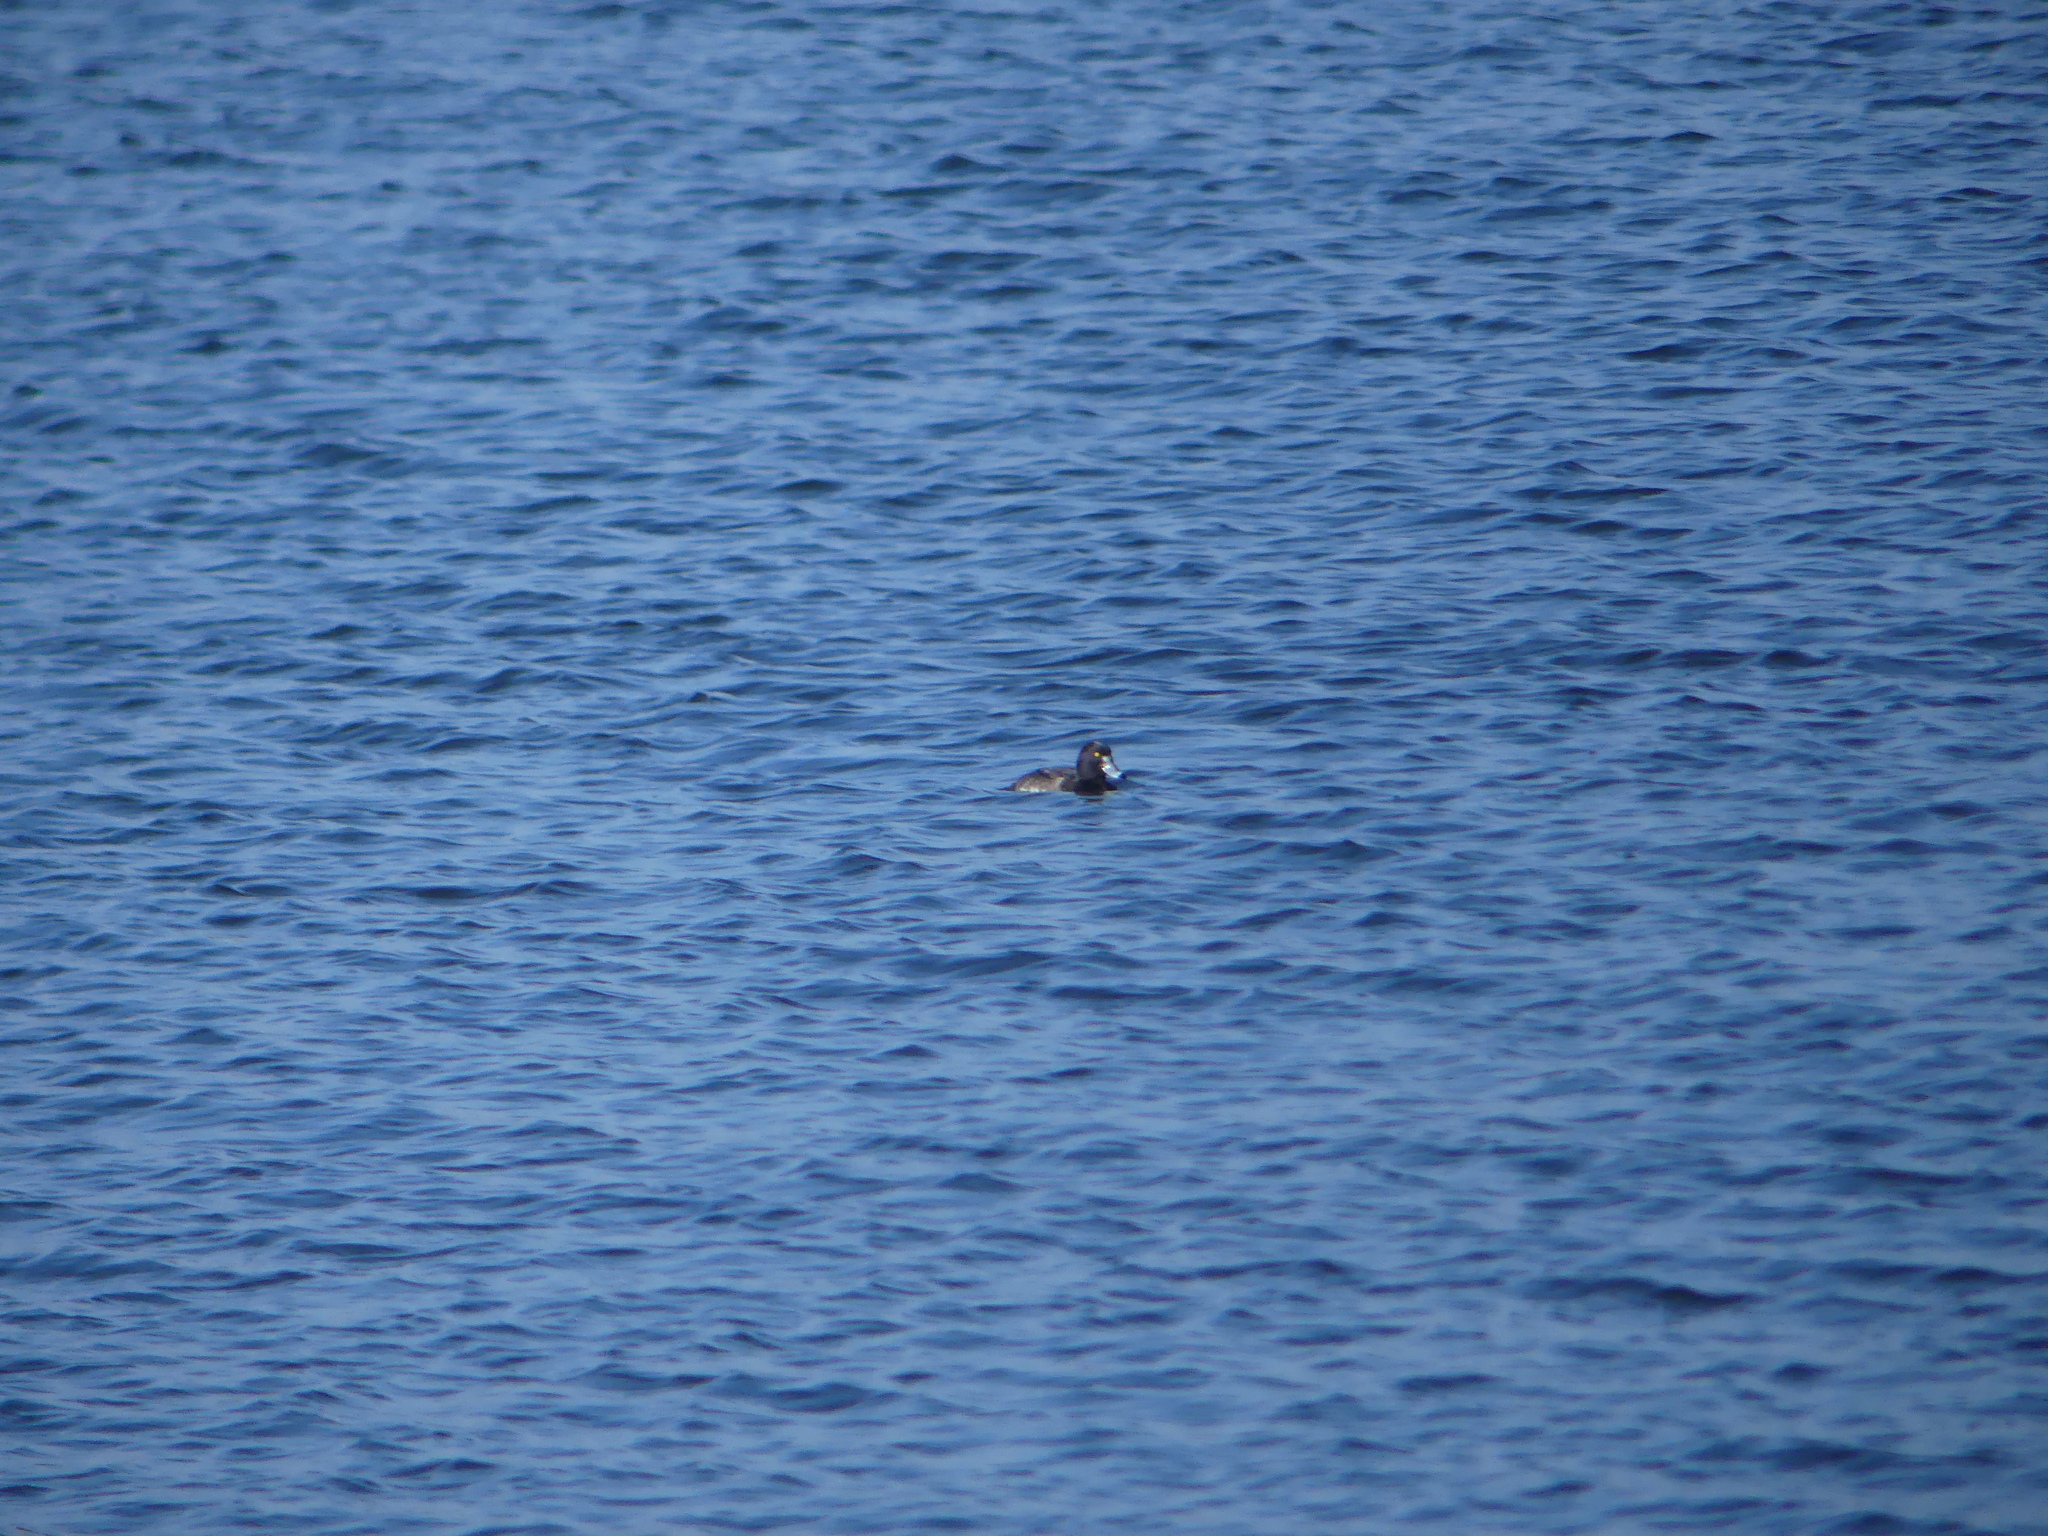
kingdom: Animalia
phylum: Chordata
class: Aves
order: Anseriformes
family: Anatidae
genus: Aythya
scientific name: Aythya fuligula
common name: Tufted duck
